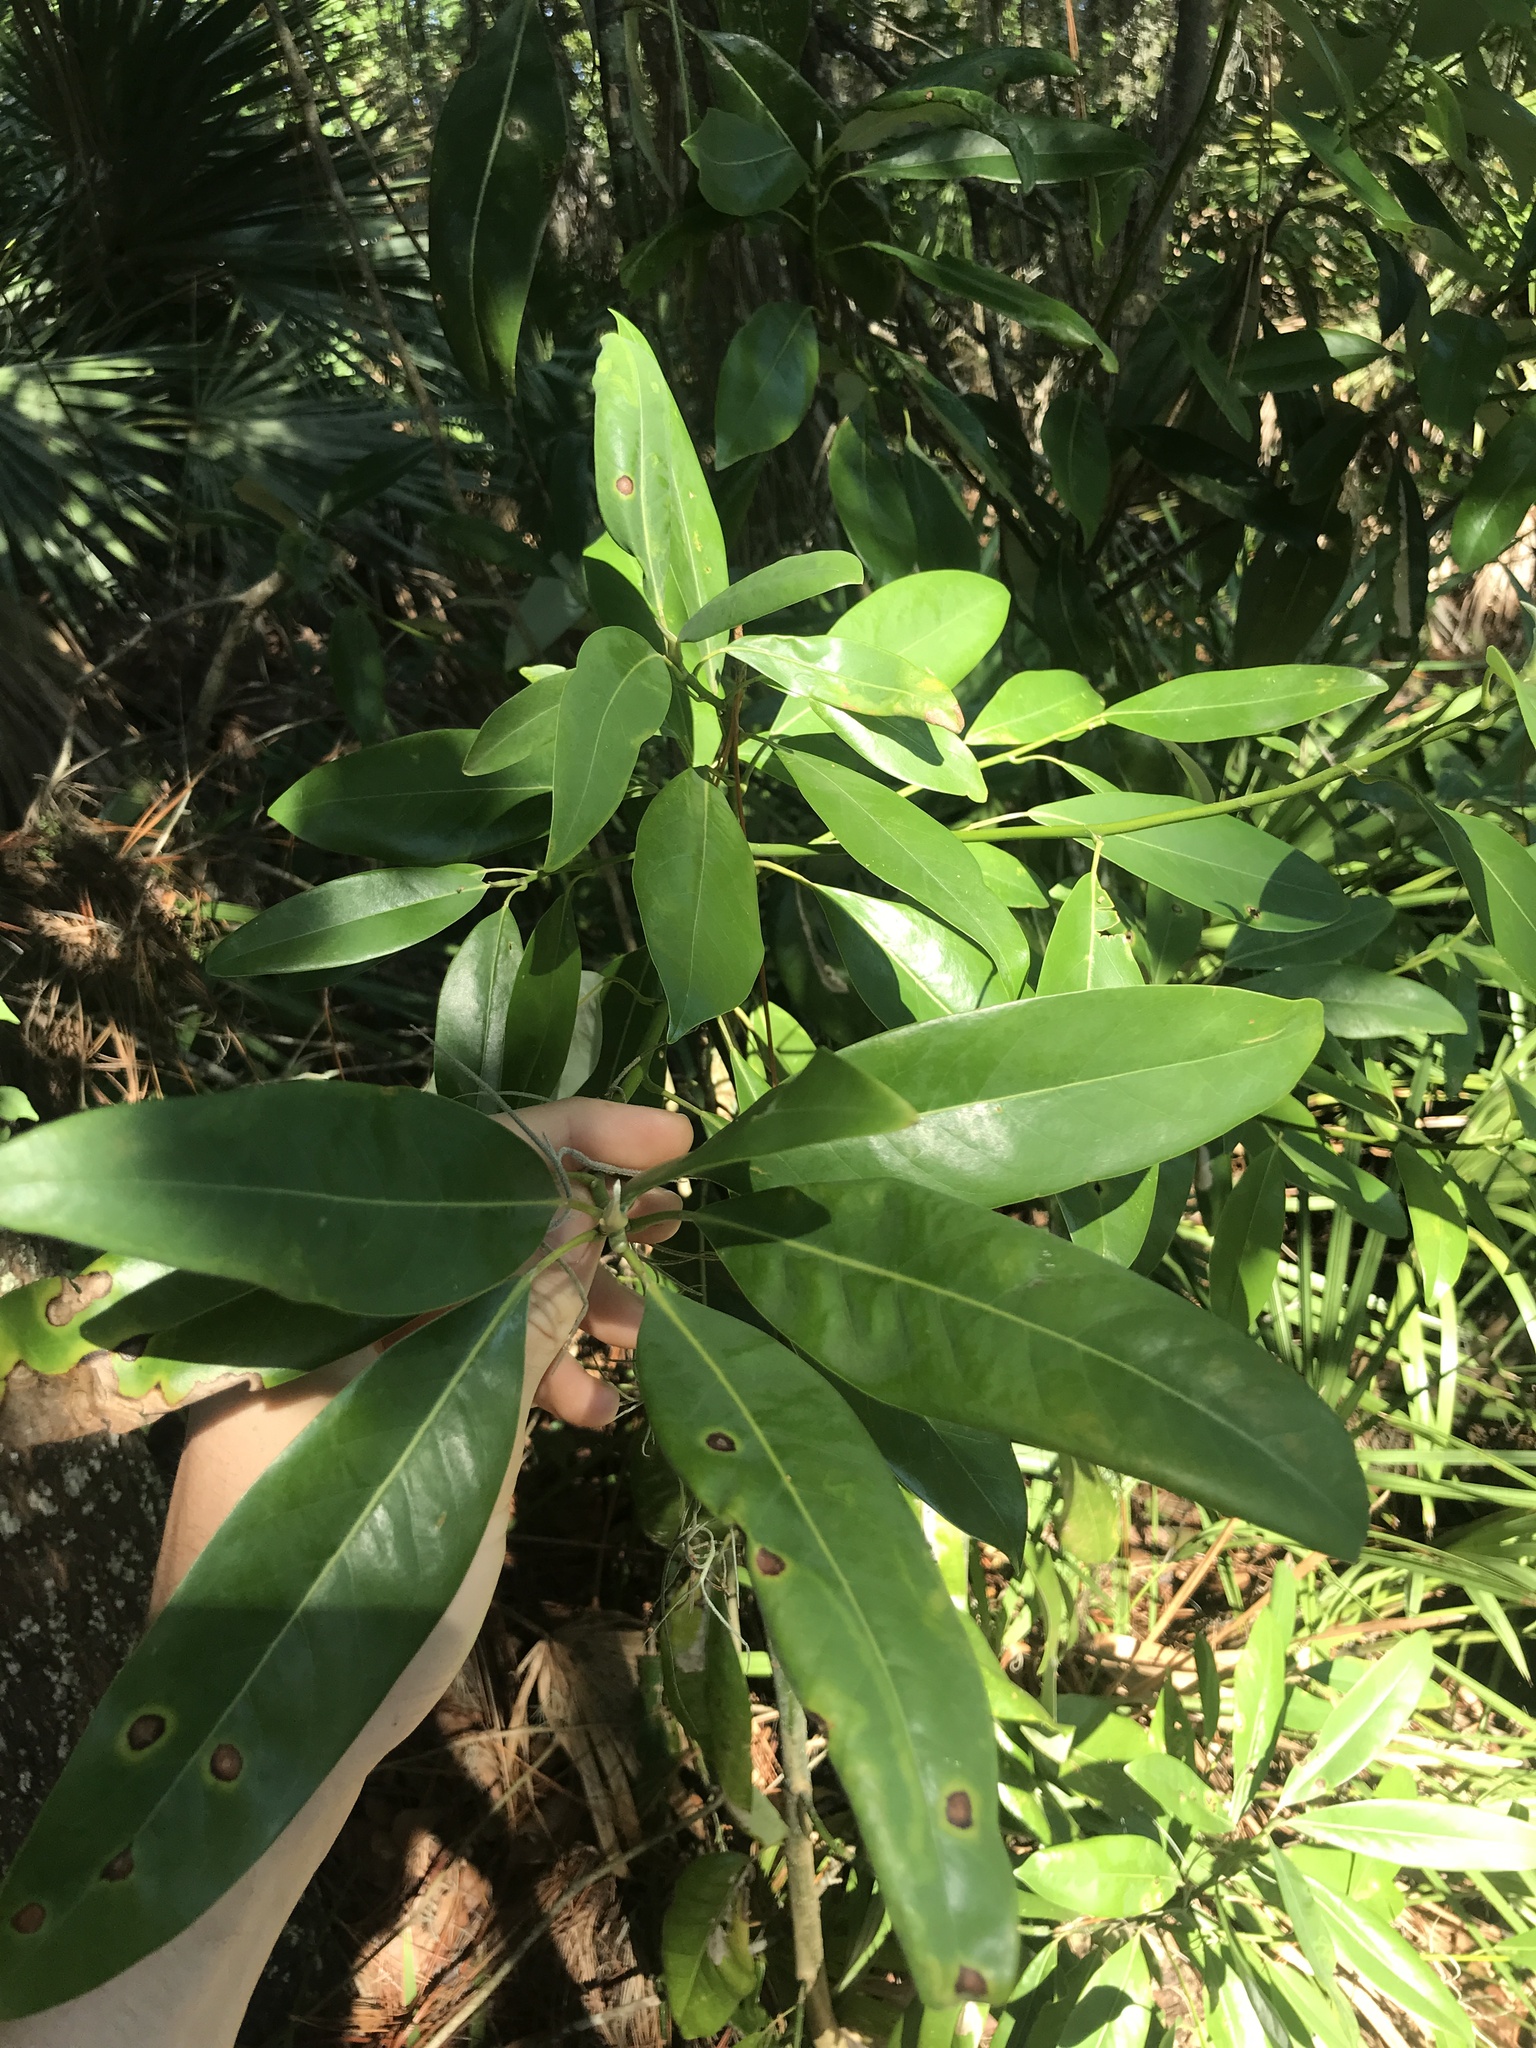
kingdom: Plantae
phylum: Tracheophyta
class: Magnoliopsida
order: Magnoliales
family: Magnoliaceae
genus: Magnolia
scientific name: Magnolia virginiana
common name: Swamp bay
